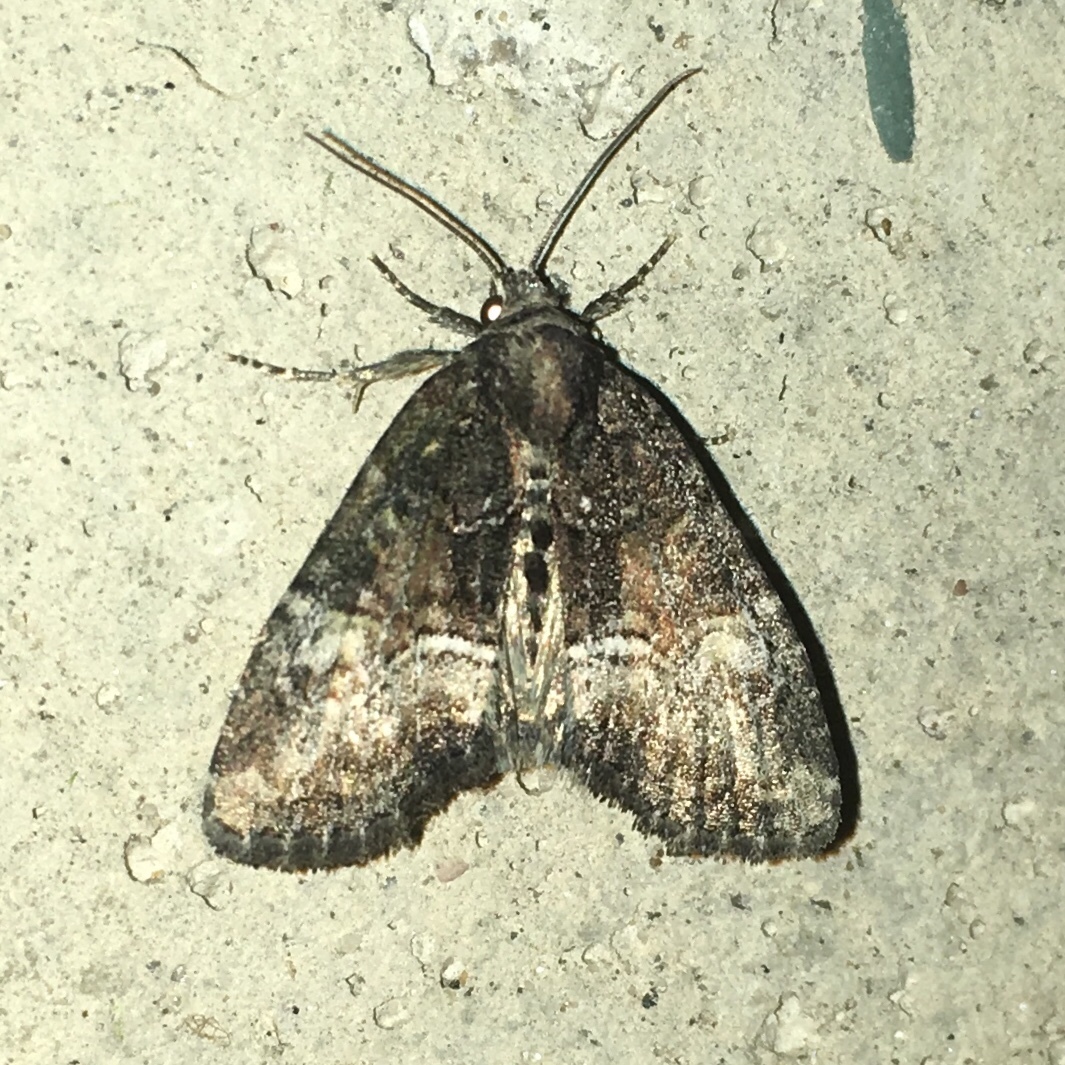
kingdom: Animalia
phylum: Arthropoda
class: Insecta
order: Lepidoptera
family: Noctuidae
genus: Neoligia
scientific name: Neoligia subjuncta
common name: Connected brocade
